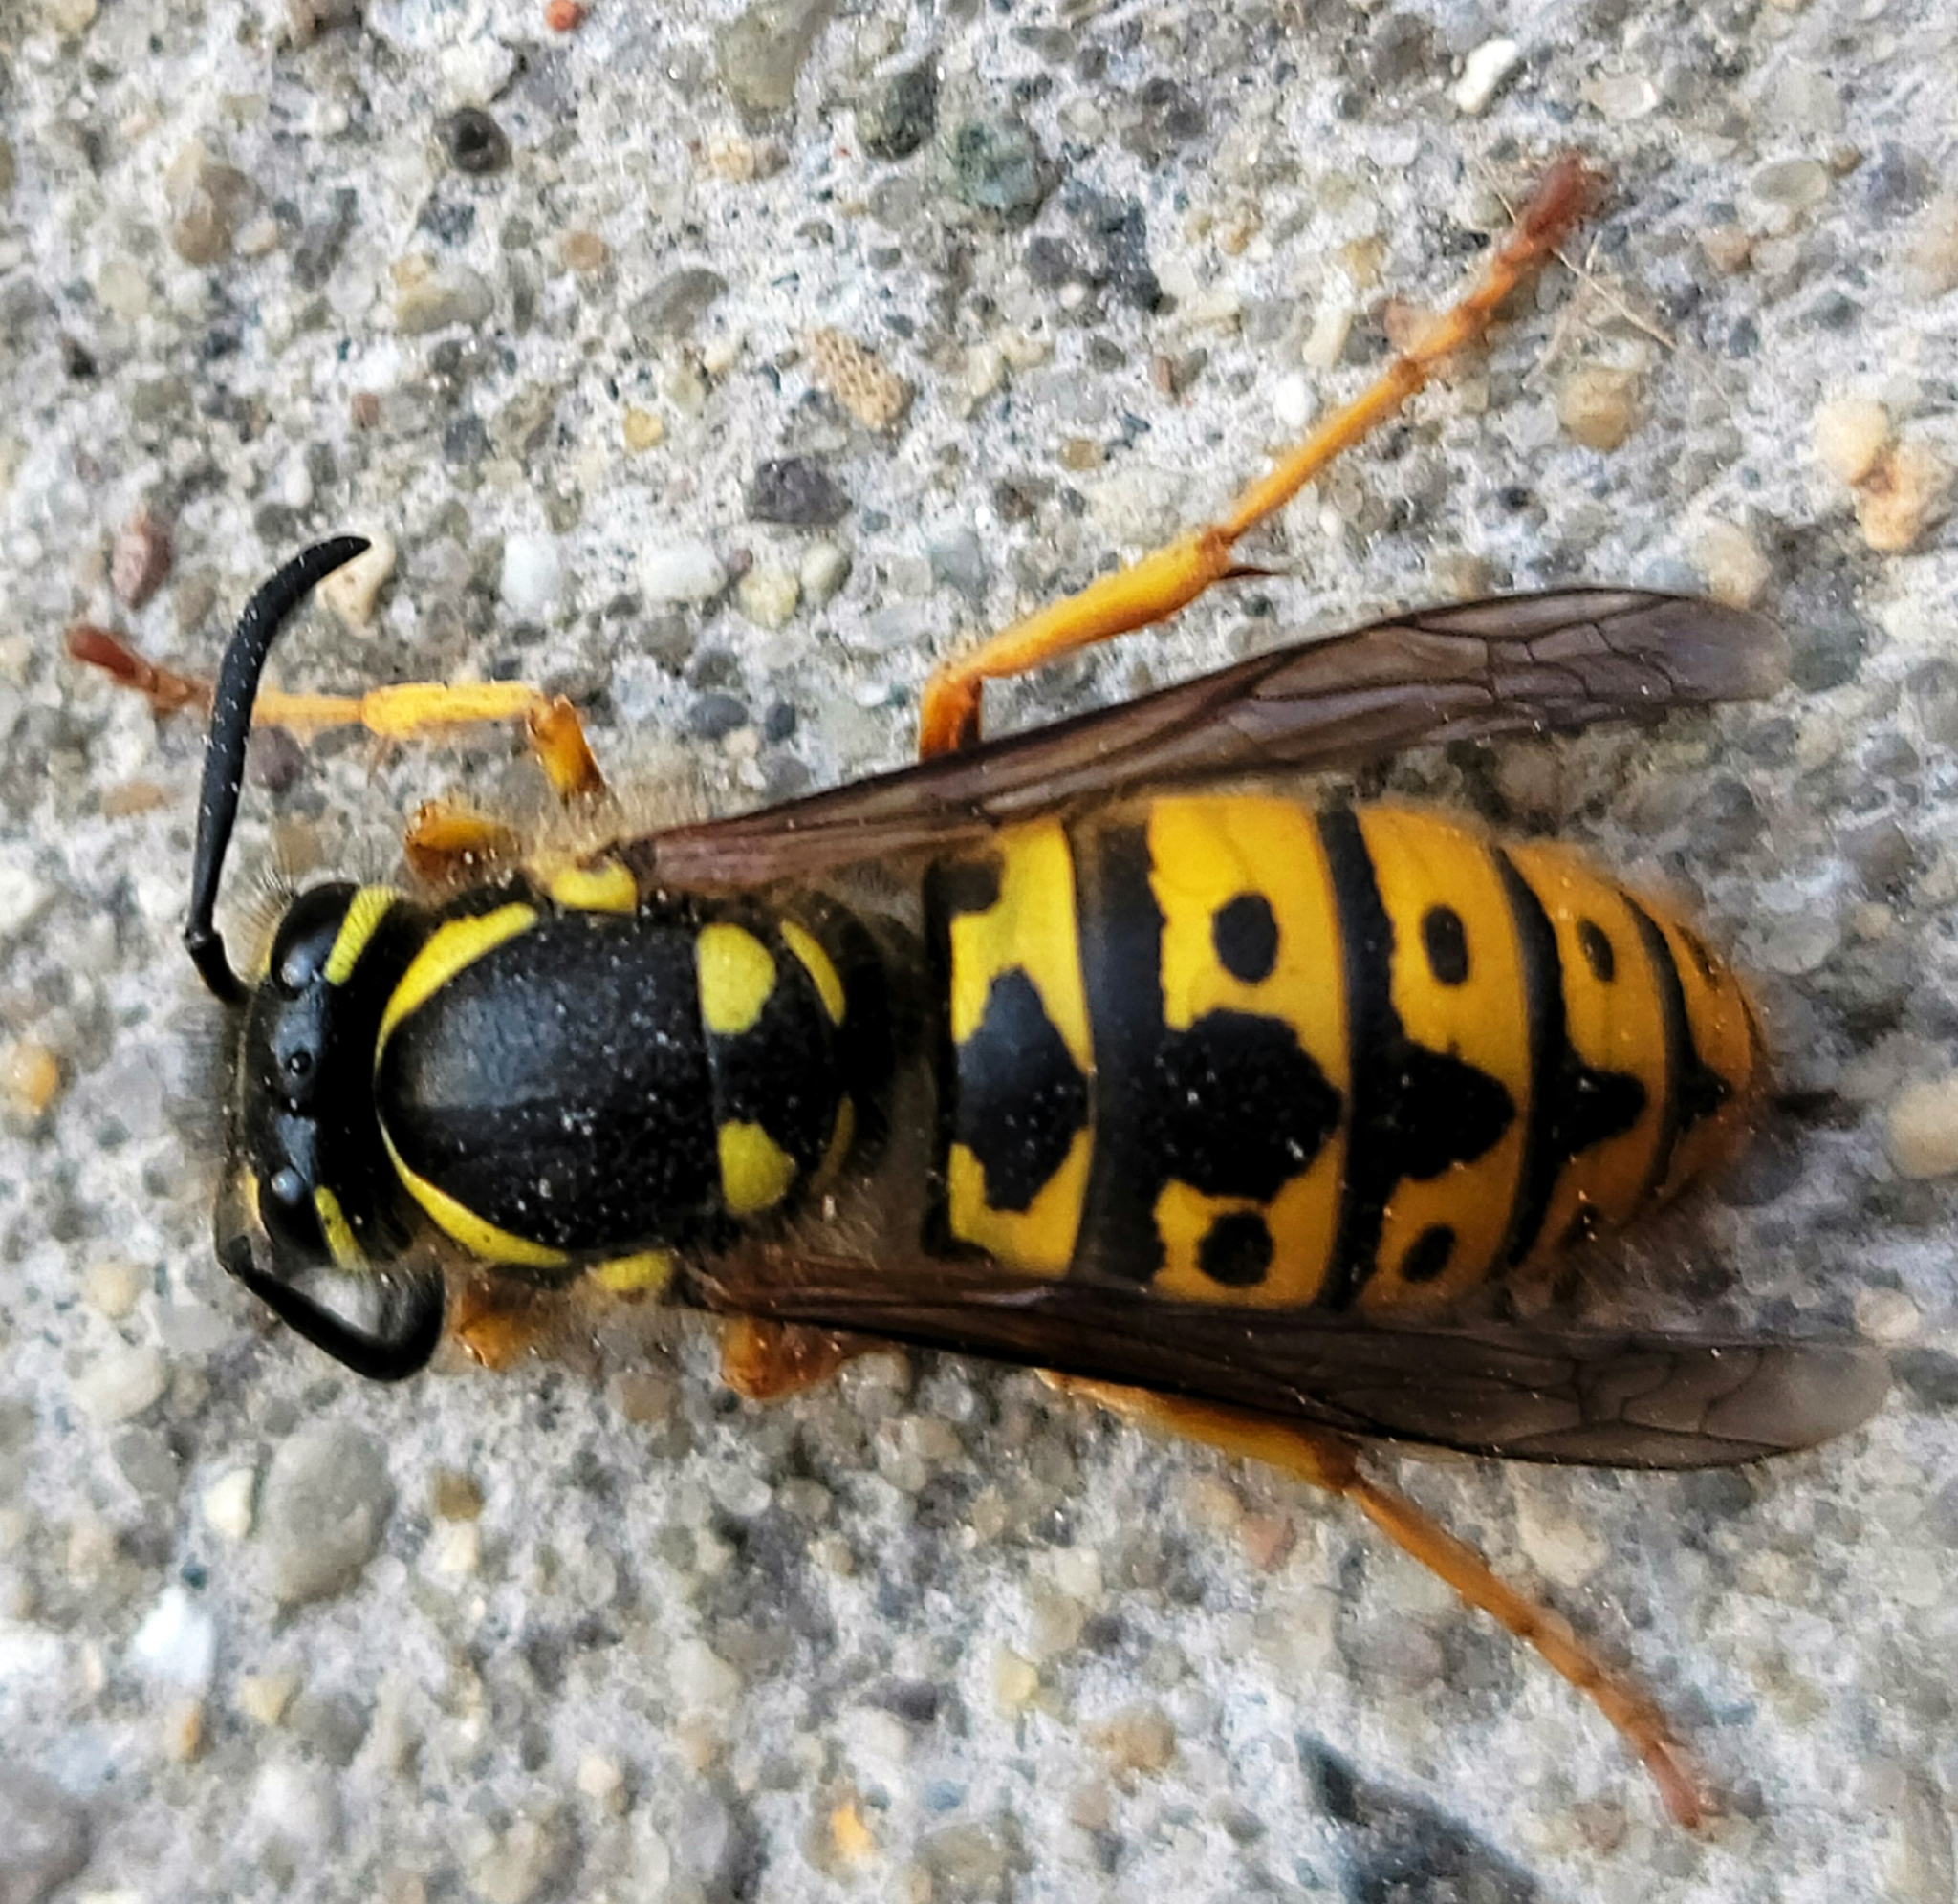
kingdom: Animalia
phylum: Arthropoda
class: Insecta
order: Hymenoptera
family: Vespidae
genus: Vespula
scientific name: Vespula germanica
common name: German wasp
